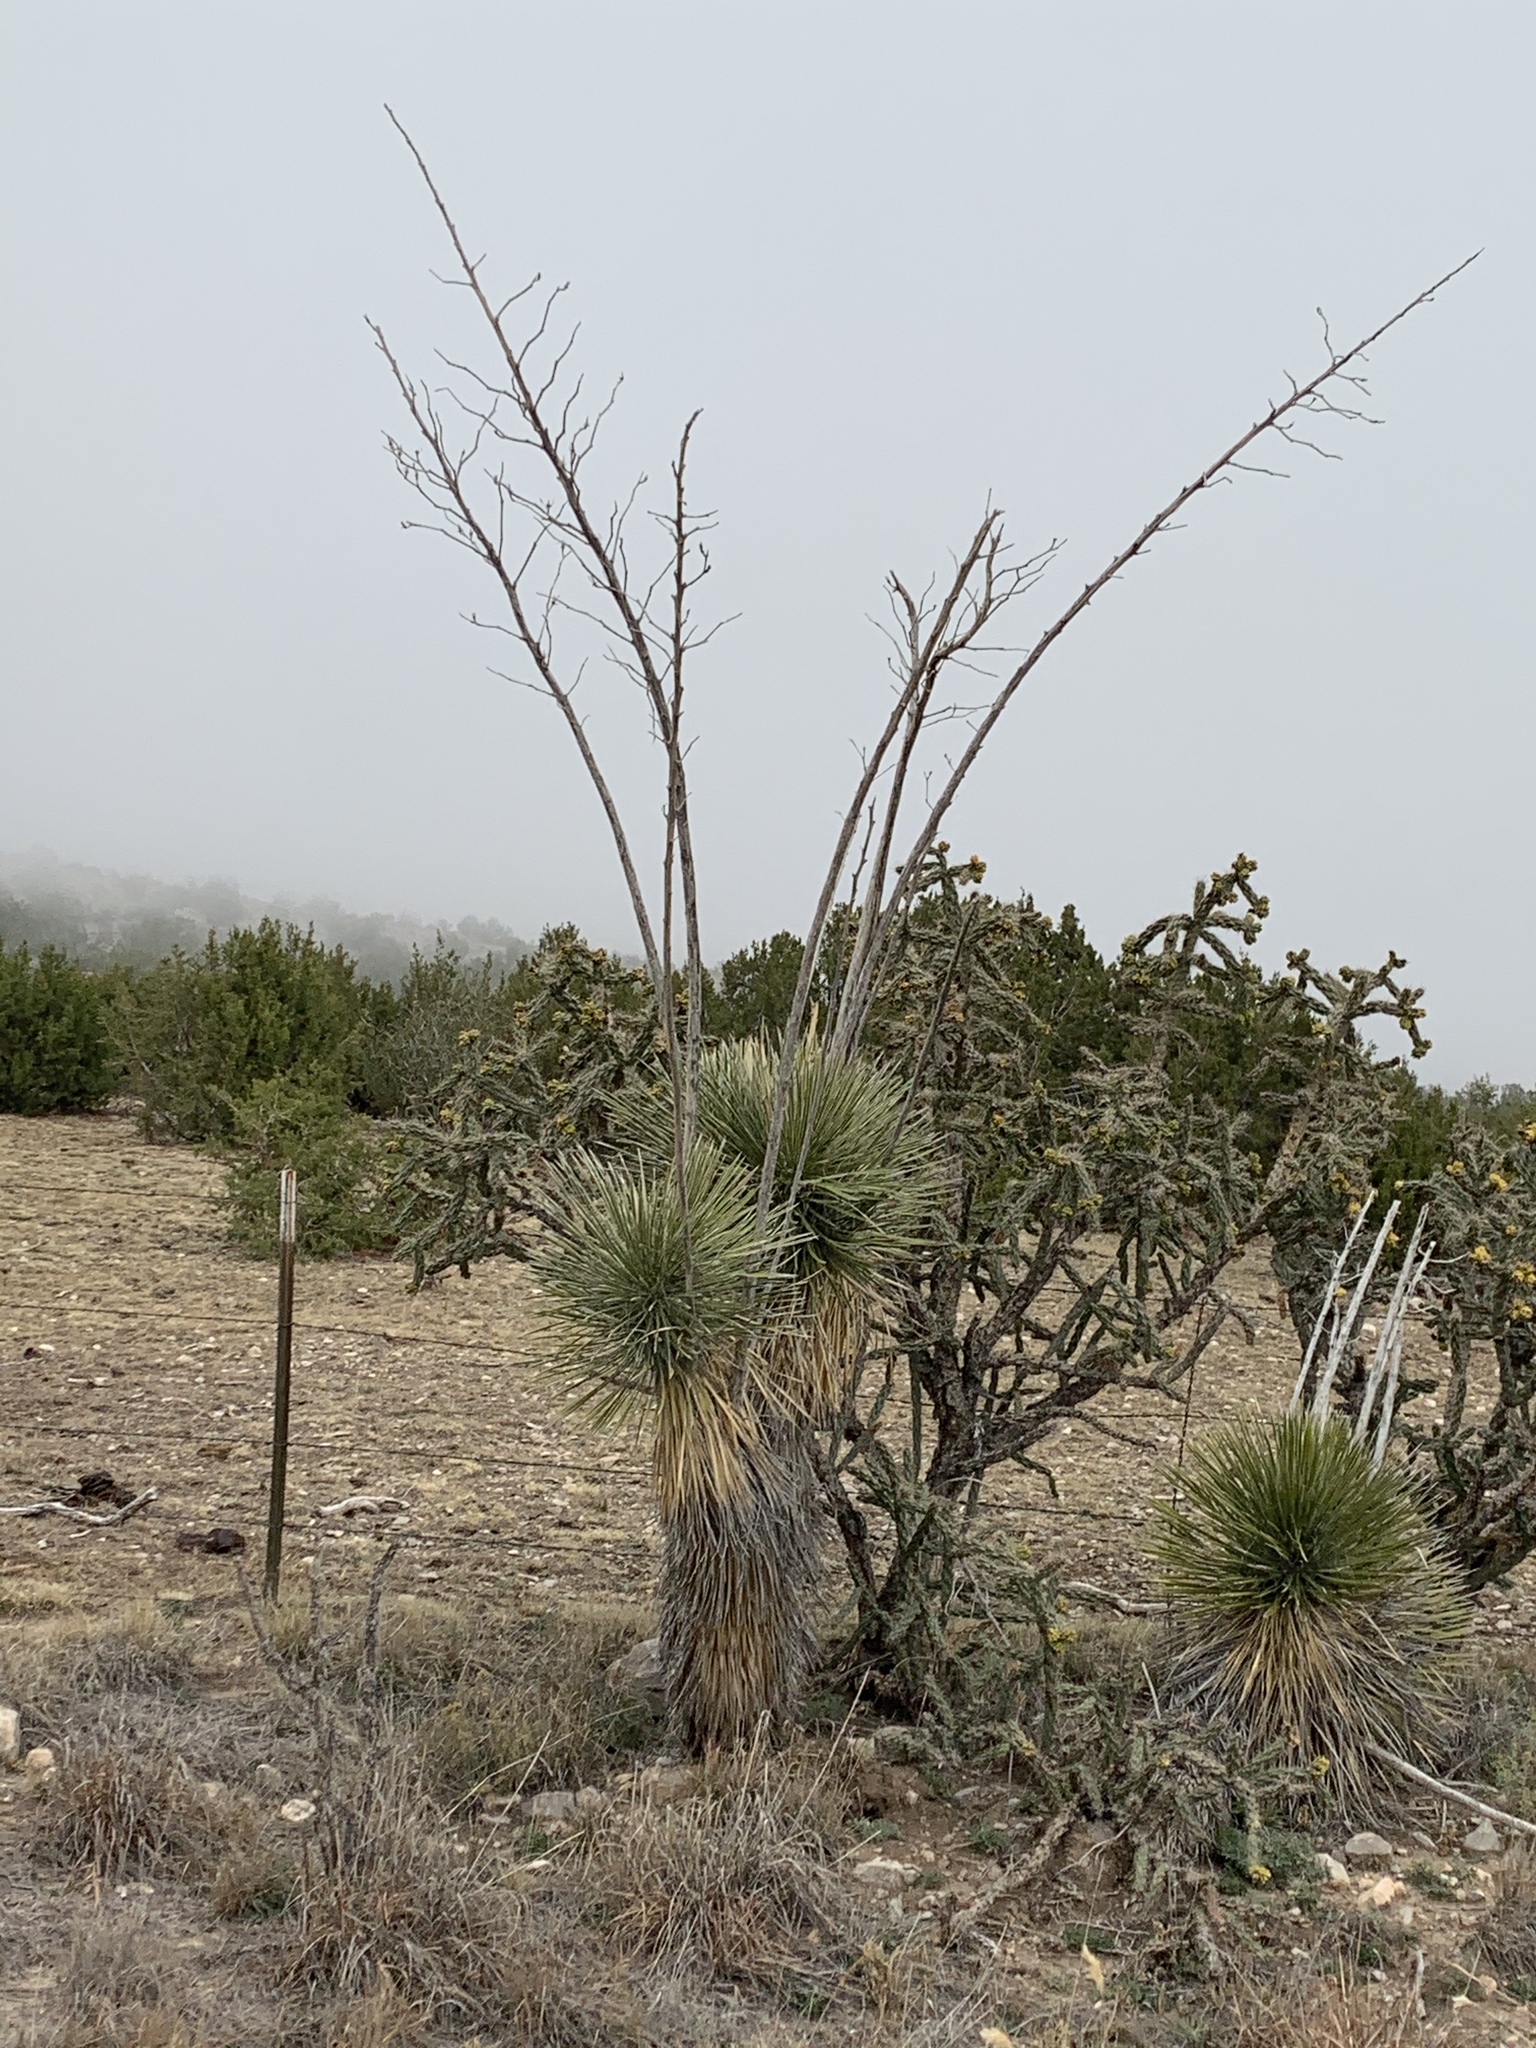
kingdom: Plantae
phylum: Tracheophyta
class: Liliopsida
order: Asparagales
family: Asparagaceae
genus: Yucca
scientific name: Yucca elata
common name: Palmella
